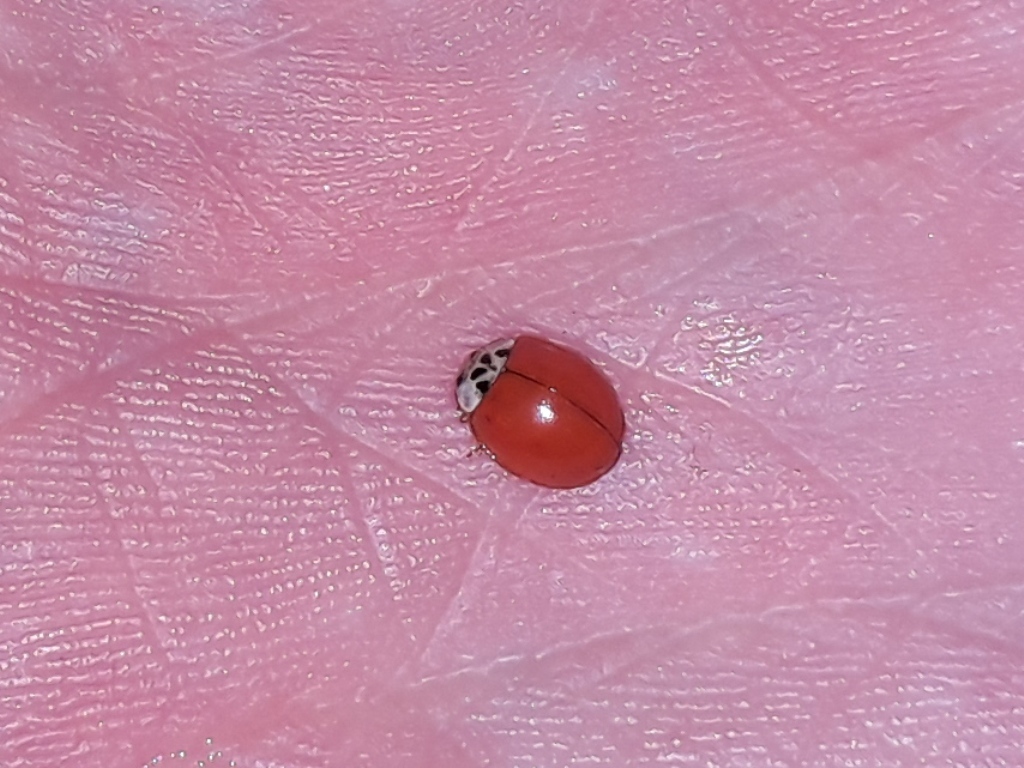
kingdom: Animalia
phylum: Arthropoda
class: Insecta
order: Coleoptera
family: Coccinellidae
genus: Harmonia
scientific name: Harmonia axyridis
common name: Harlequin ladybird
